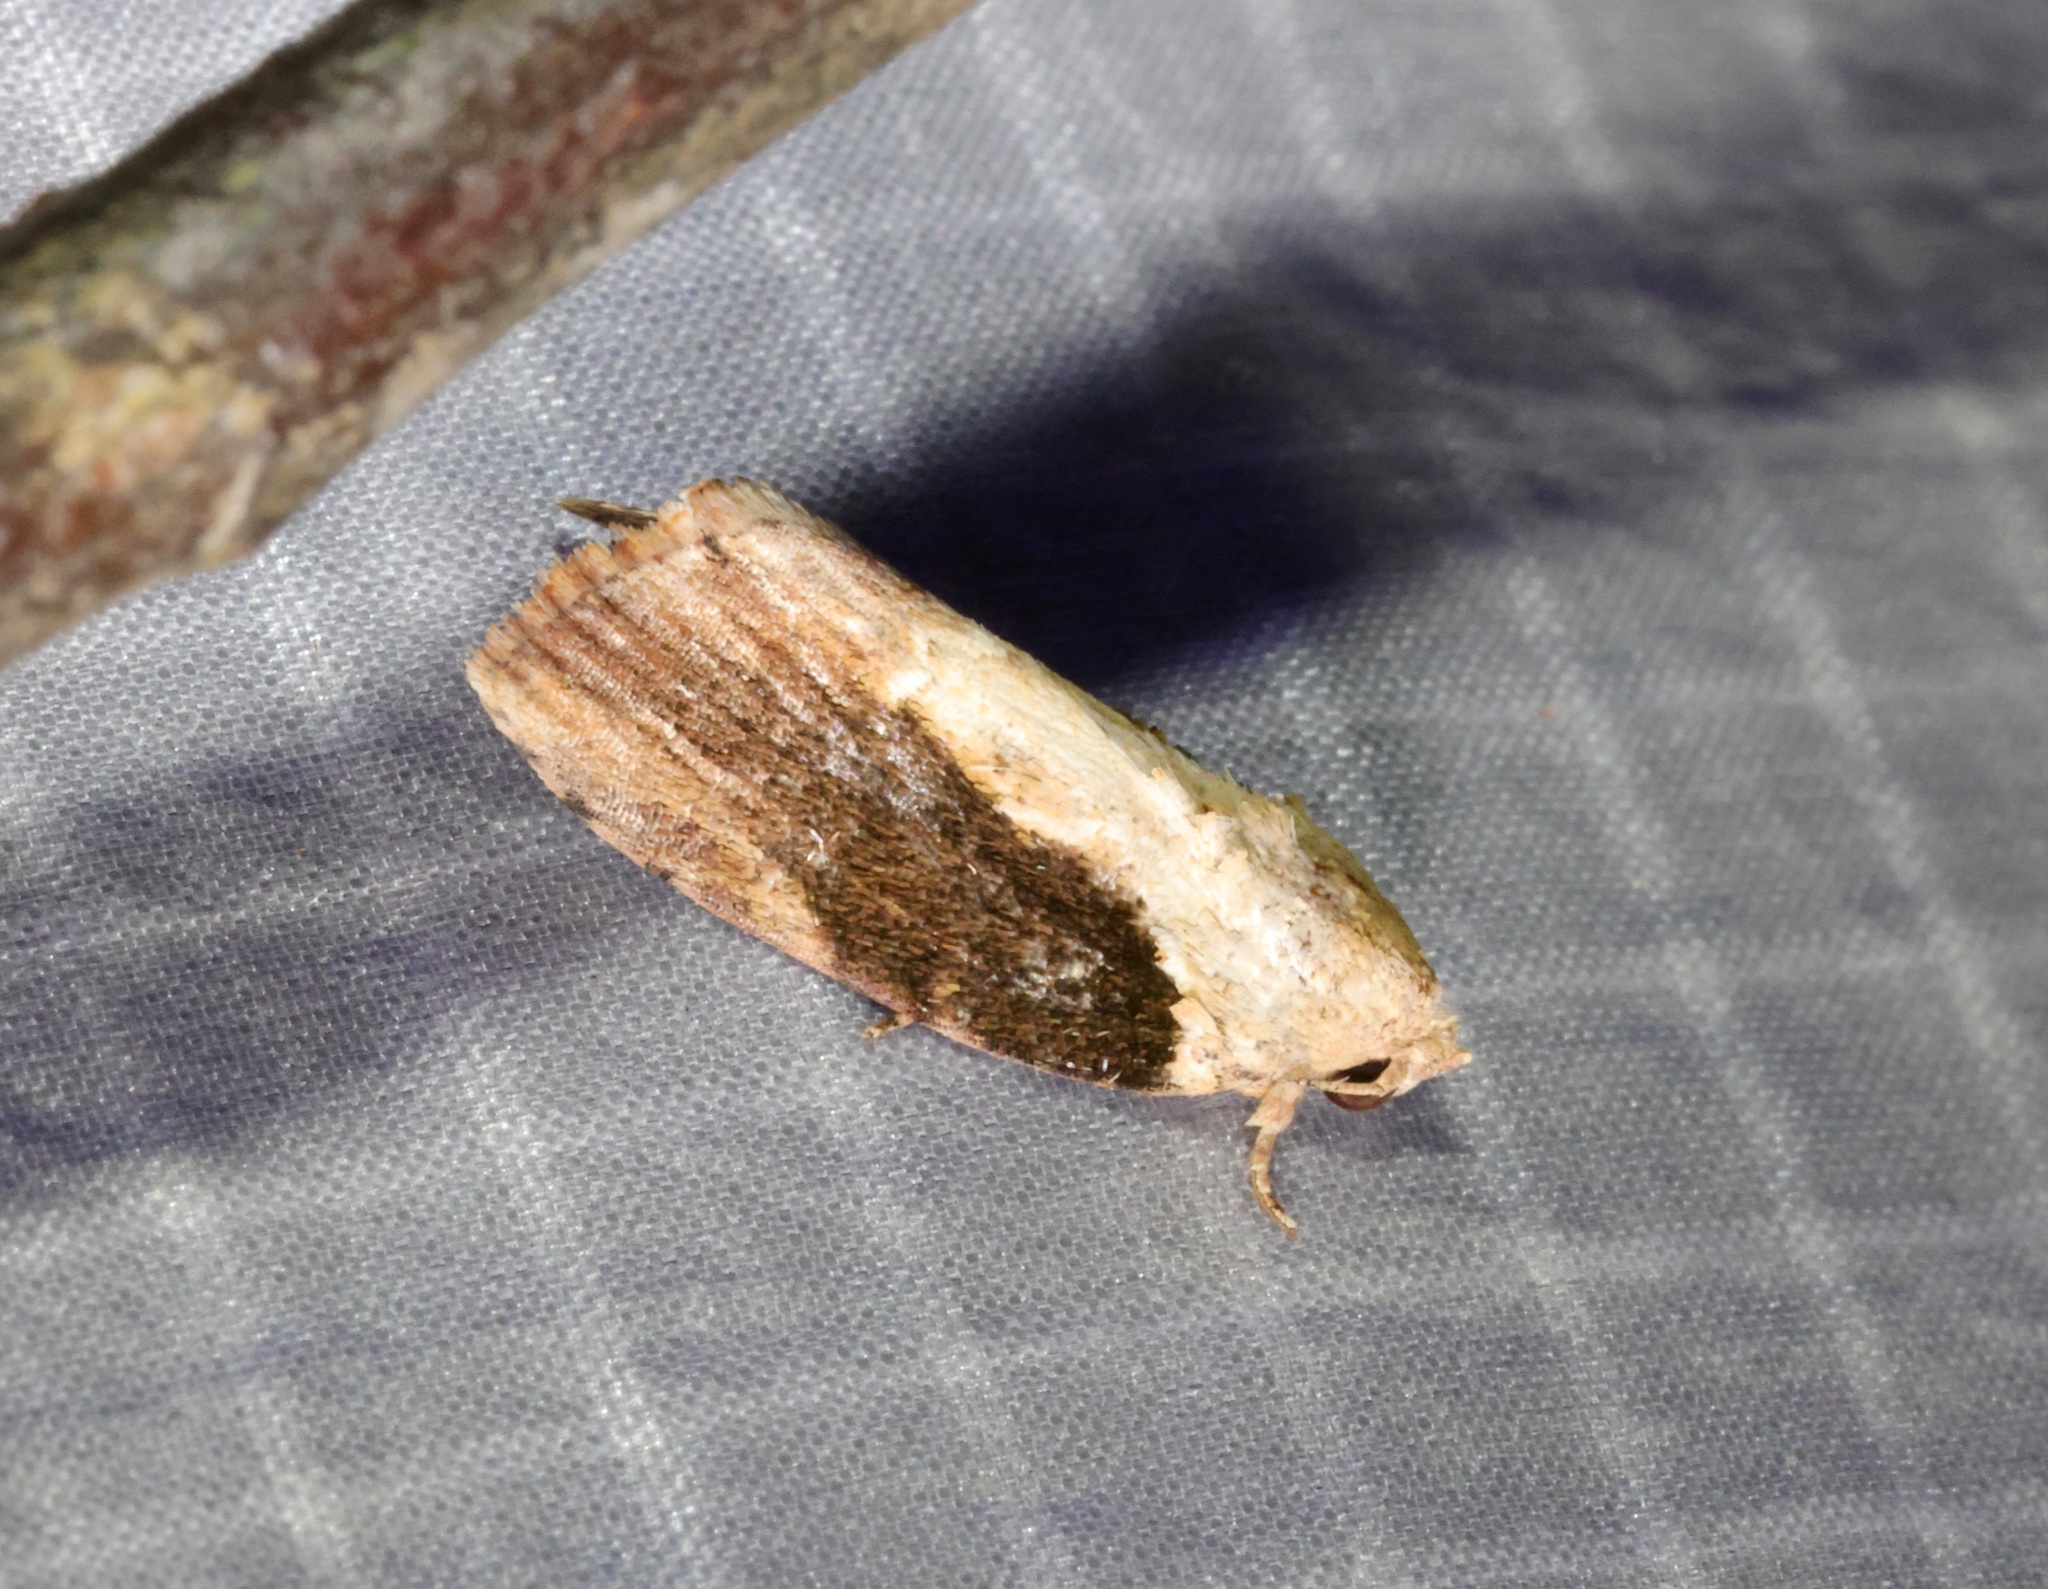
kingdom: Animalia
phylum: Arthropoda
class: Insecta
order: Lepidoptera
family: Nolidae
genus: Etanna
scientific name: Etanna breviuscula
